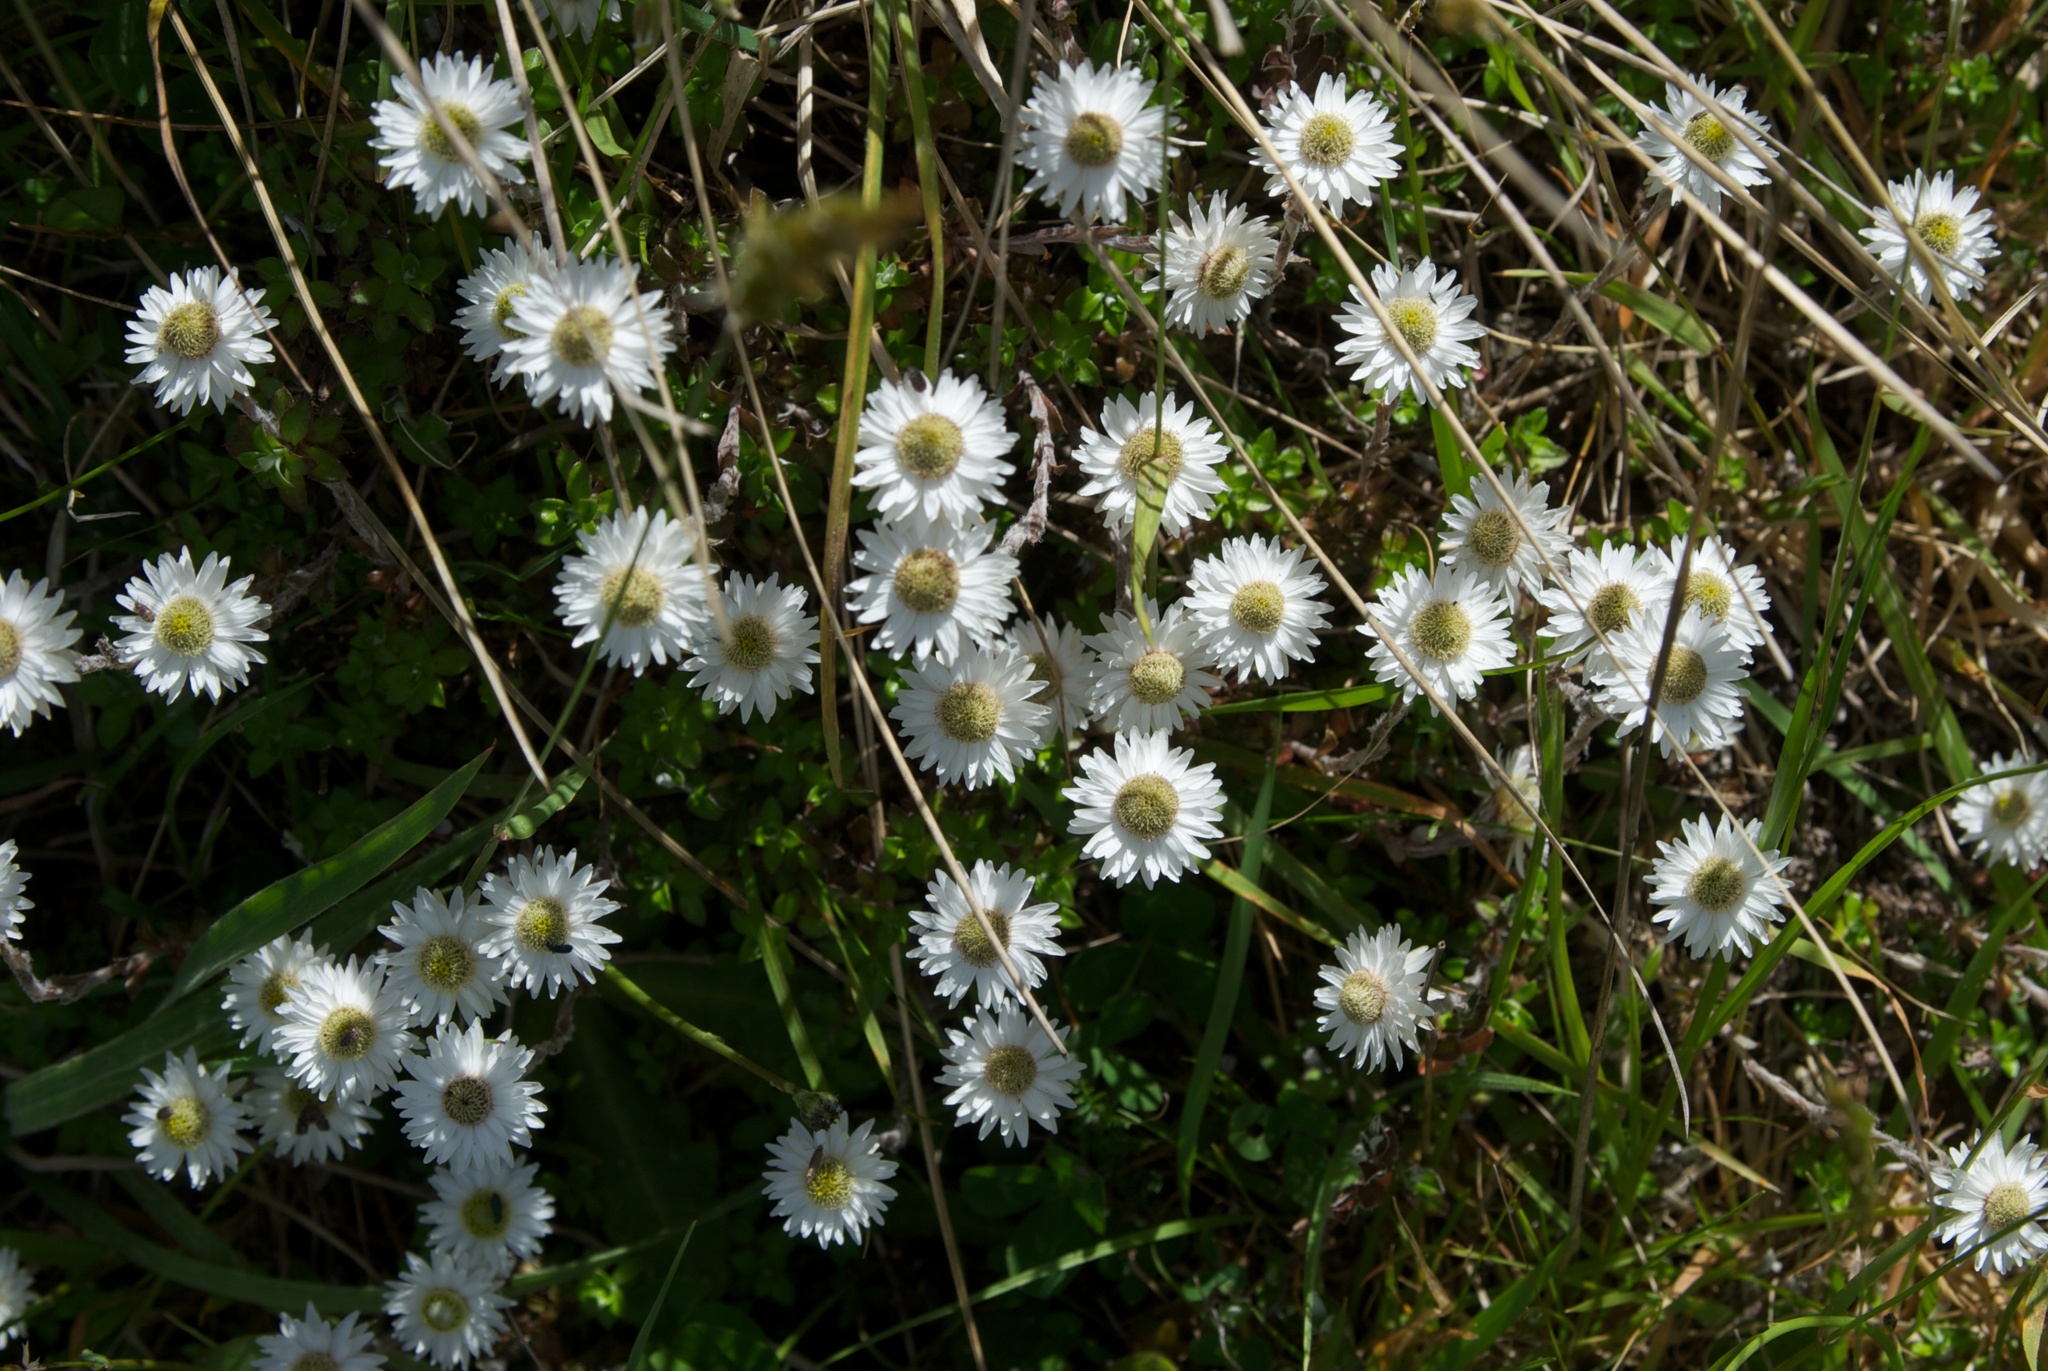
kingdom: Plantae
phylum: Tracheophyta
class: Magnoliopsida
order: Asterales
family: Asteraceae
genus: Anaphalioides
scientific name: Anaphalioides bellidioides
